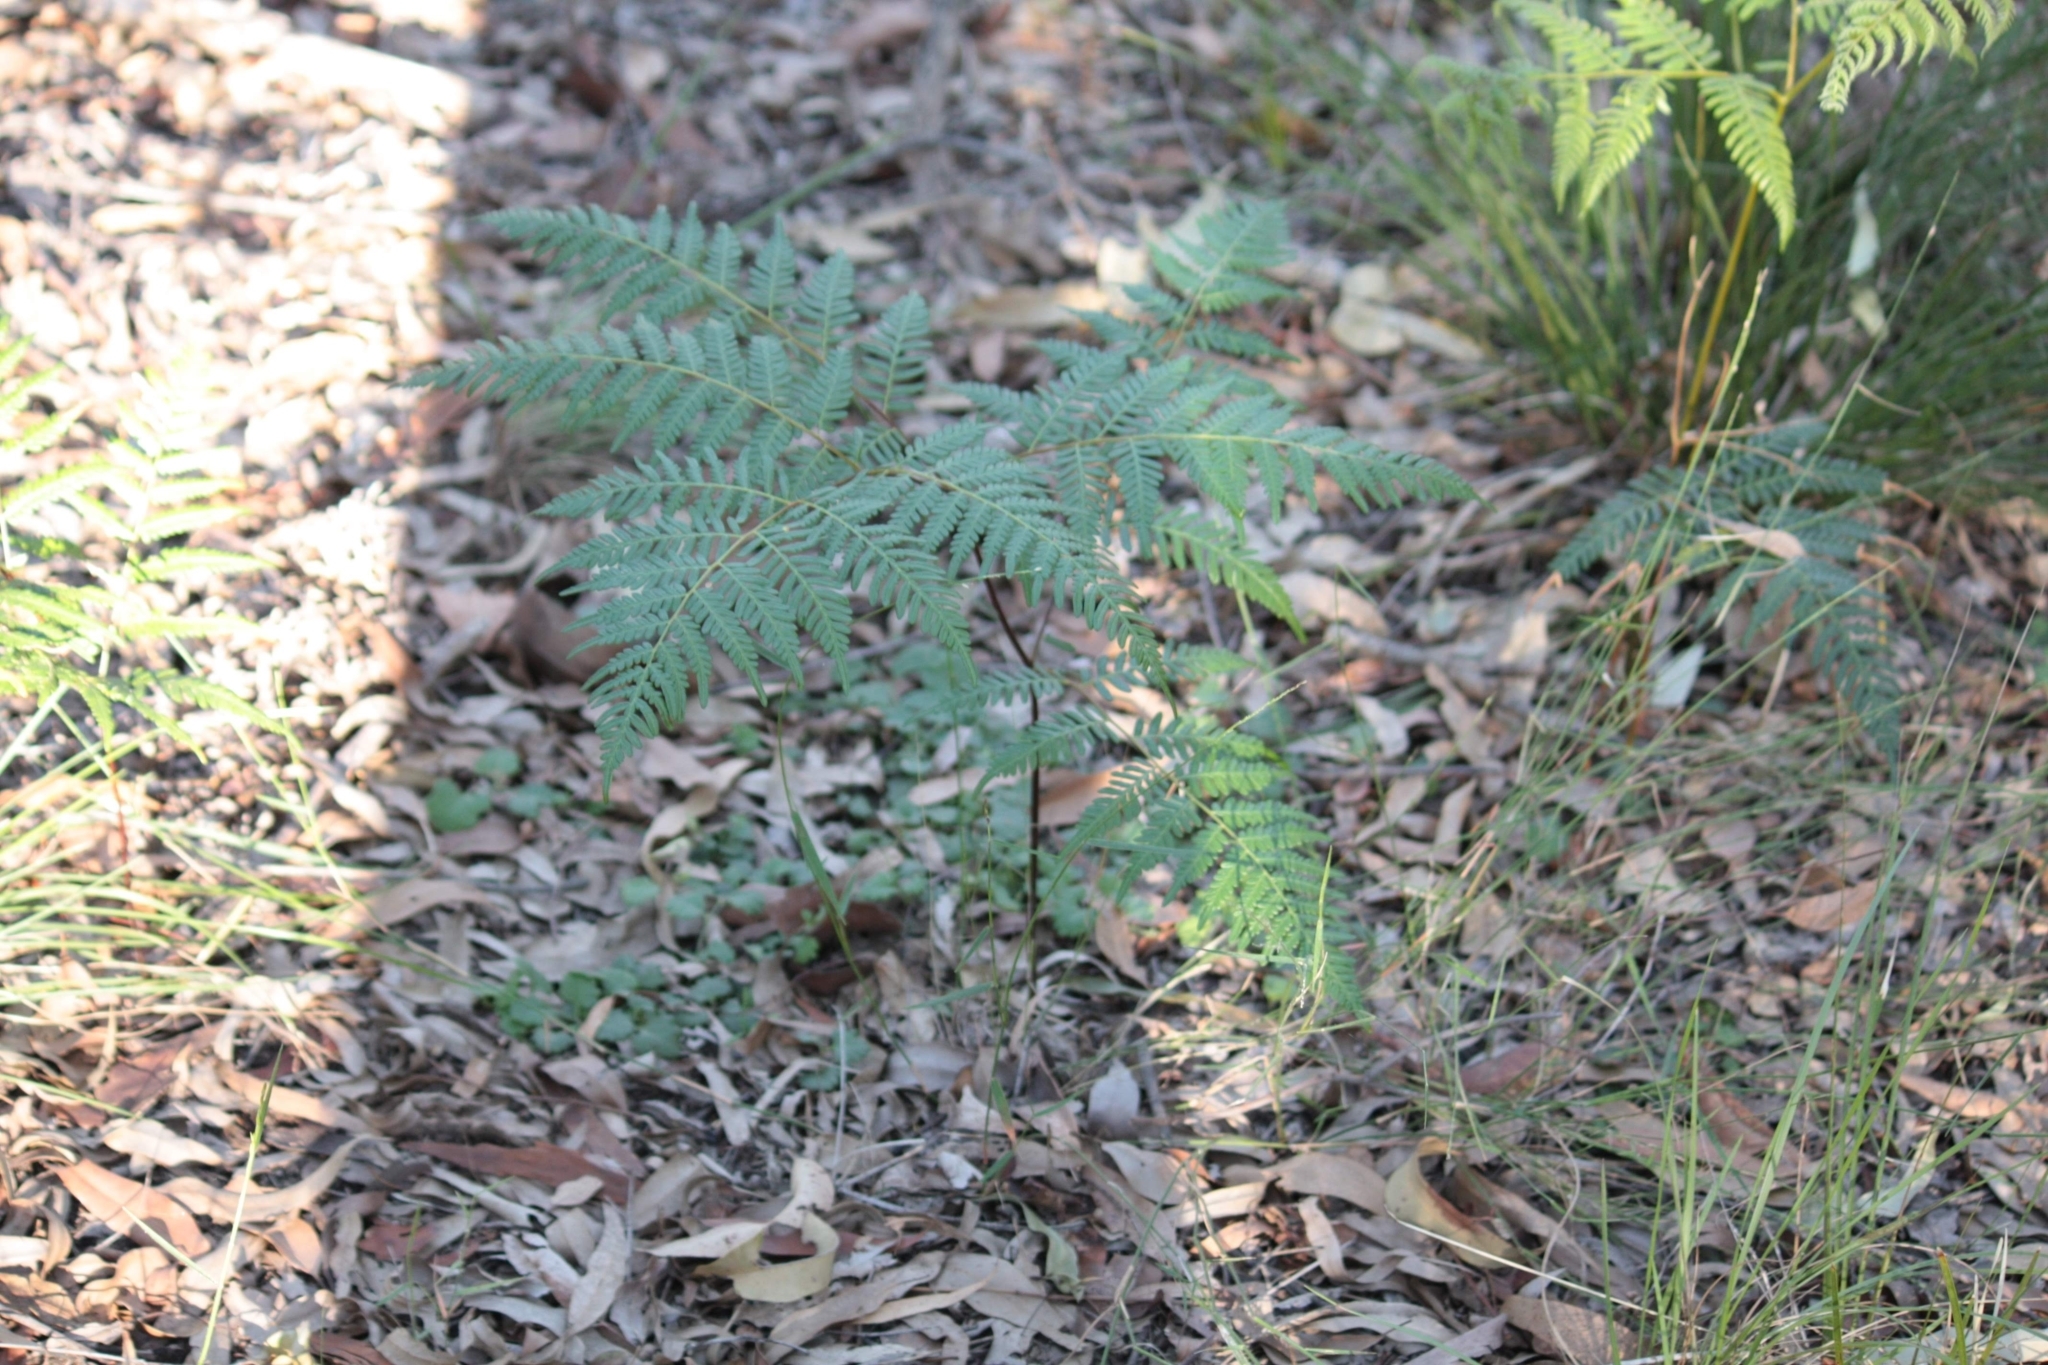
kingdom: Plantae
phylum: Tracheophyta
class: Polypodiopsida
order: Polypodiales
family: Dennstaedtiaceae
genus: Pteridium
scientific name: Pteridium esculentum
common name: Bracken fern
